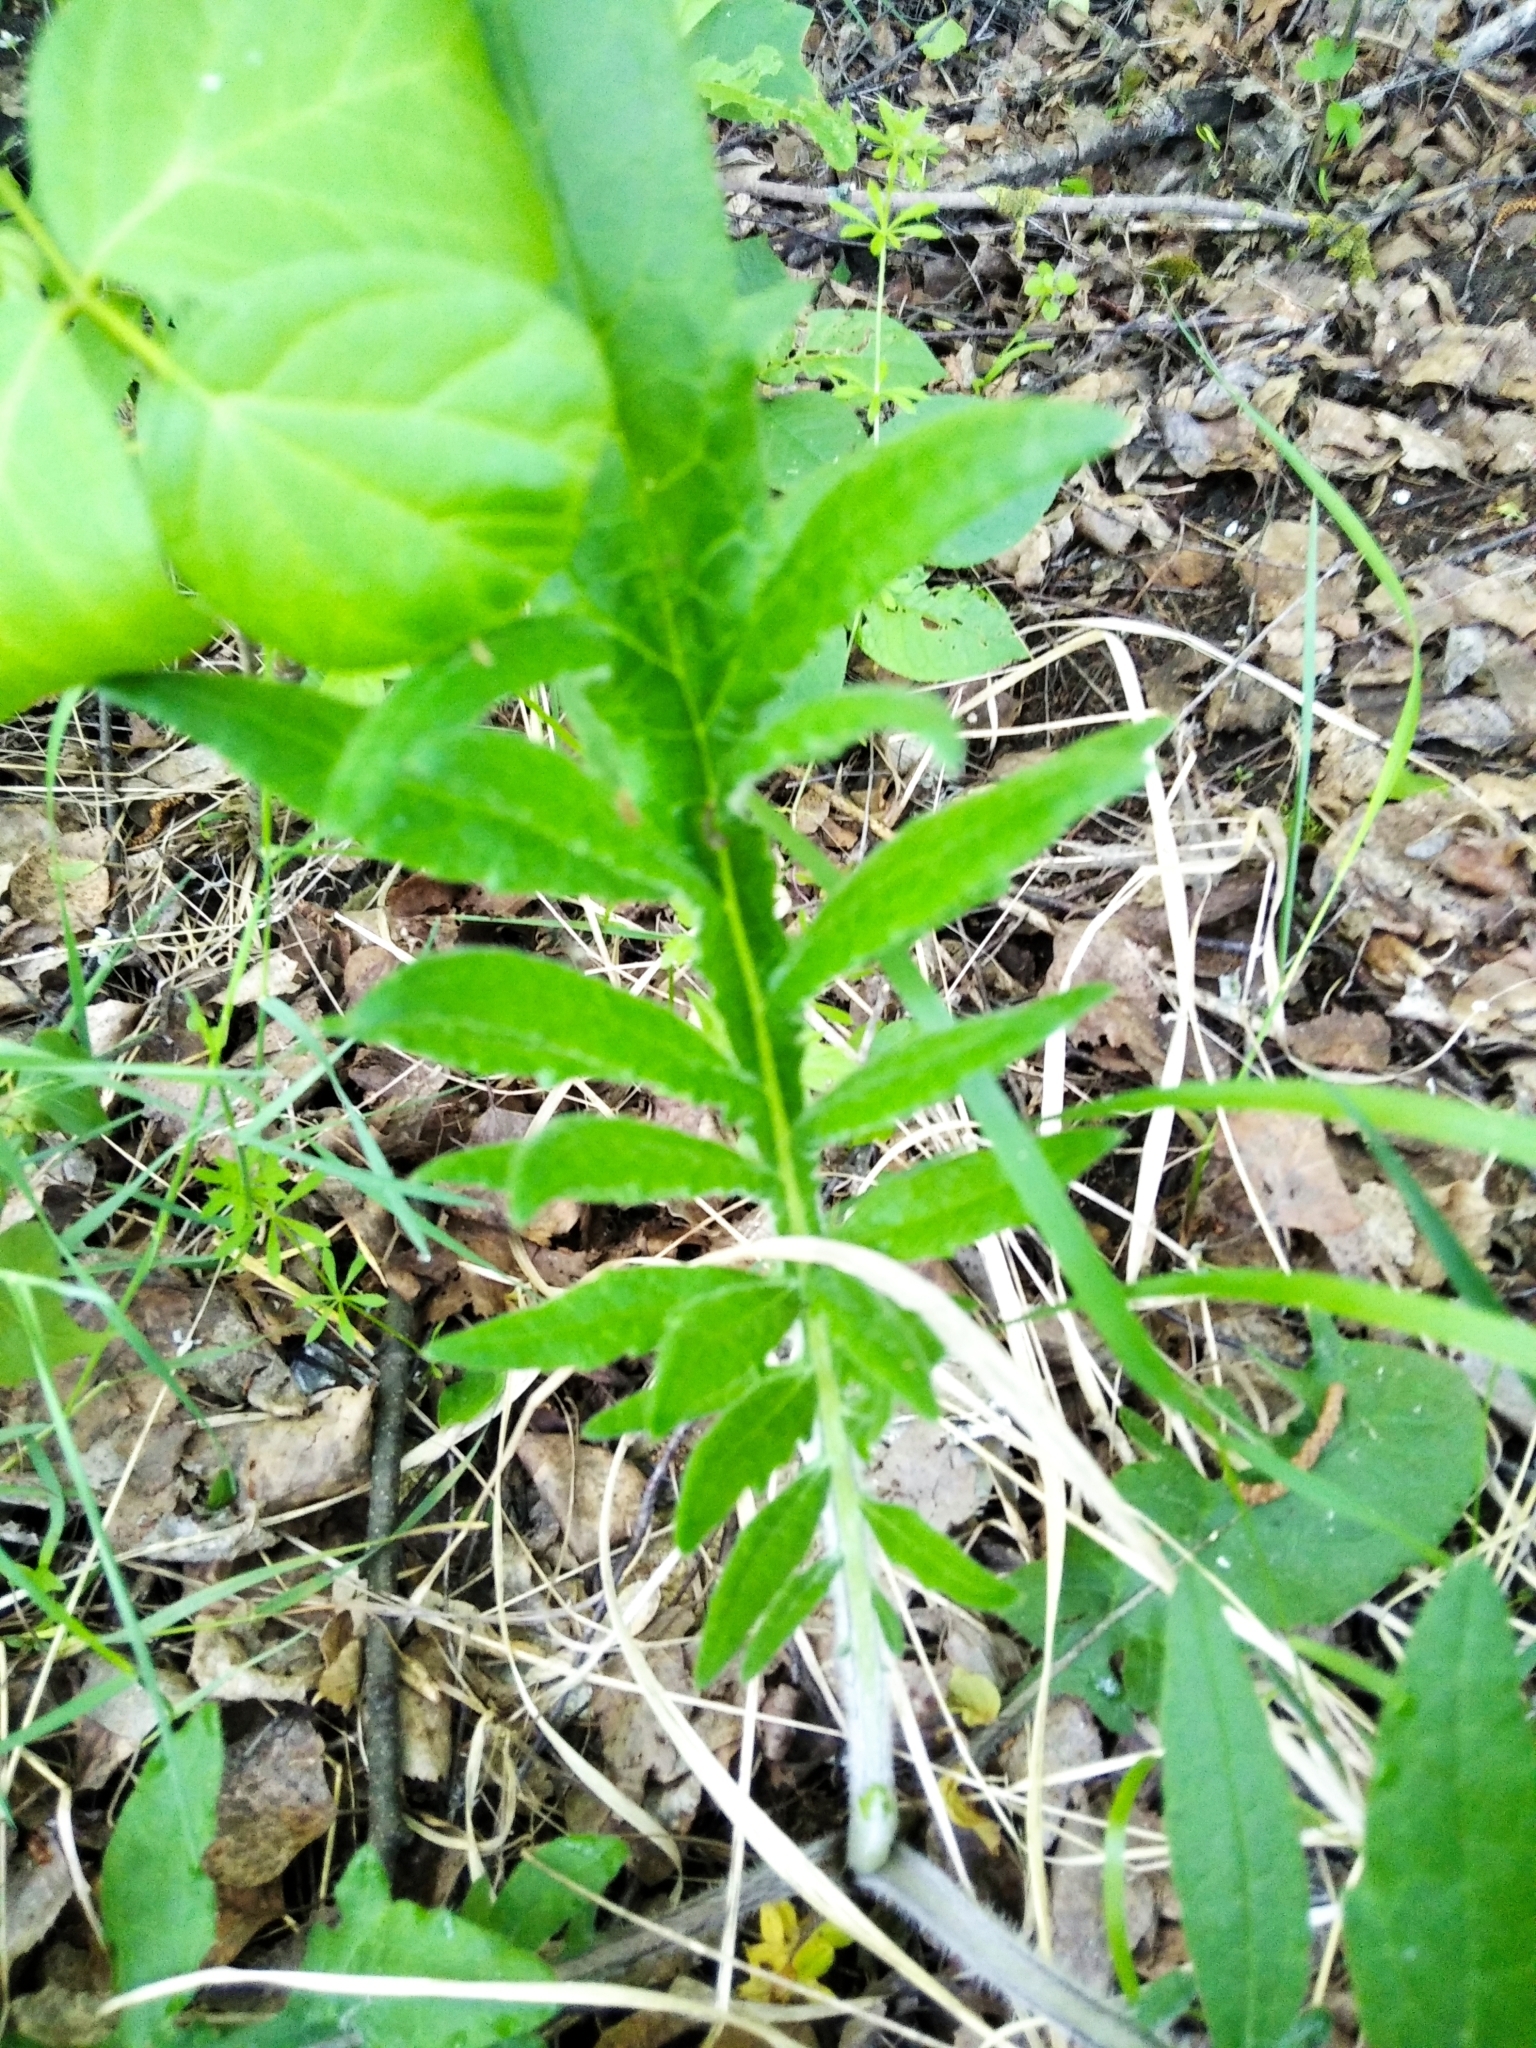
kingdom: Plantae
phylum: Tracheophyta
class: Magnoliopsida
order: Asterales
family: Asteraceae
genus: Lophiolepis
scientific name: Lophiolepis decussata
